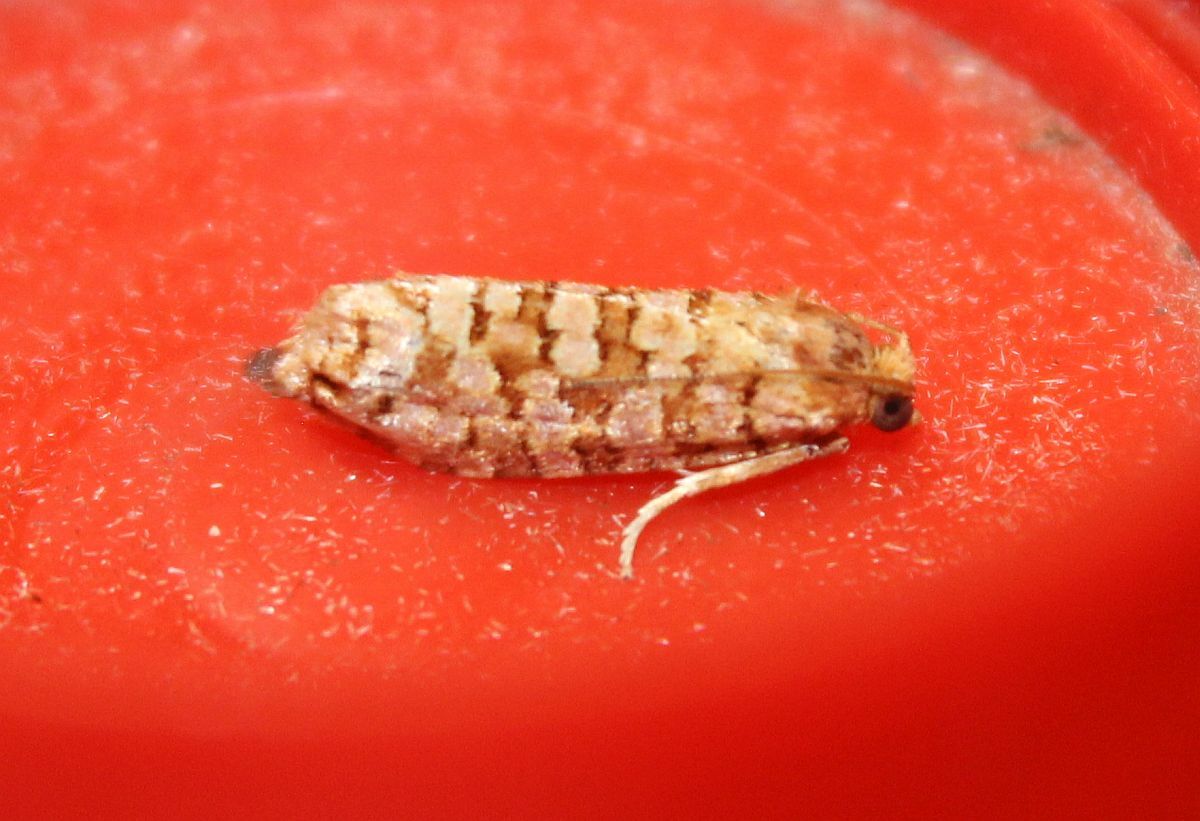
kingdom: Animalia
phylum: Arthropoda
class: Insecta
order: Lepidoptera
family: Tortricidae
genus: Lozotaeniodes
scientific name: Lozotaeniodes formosana
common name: Orange pine twist
